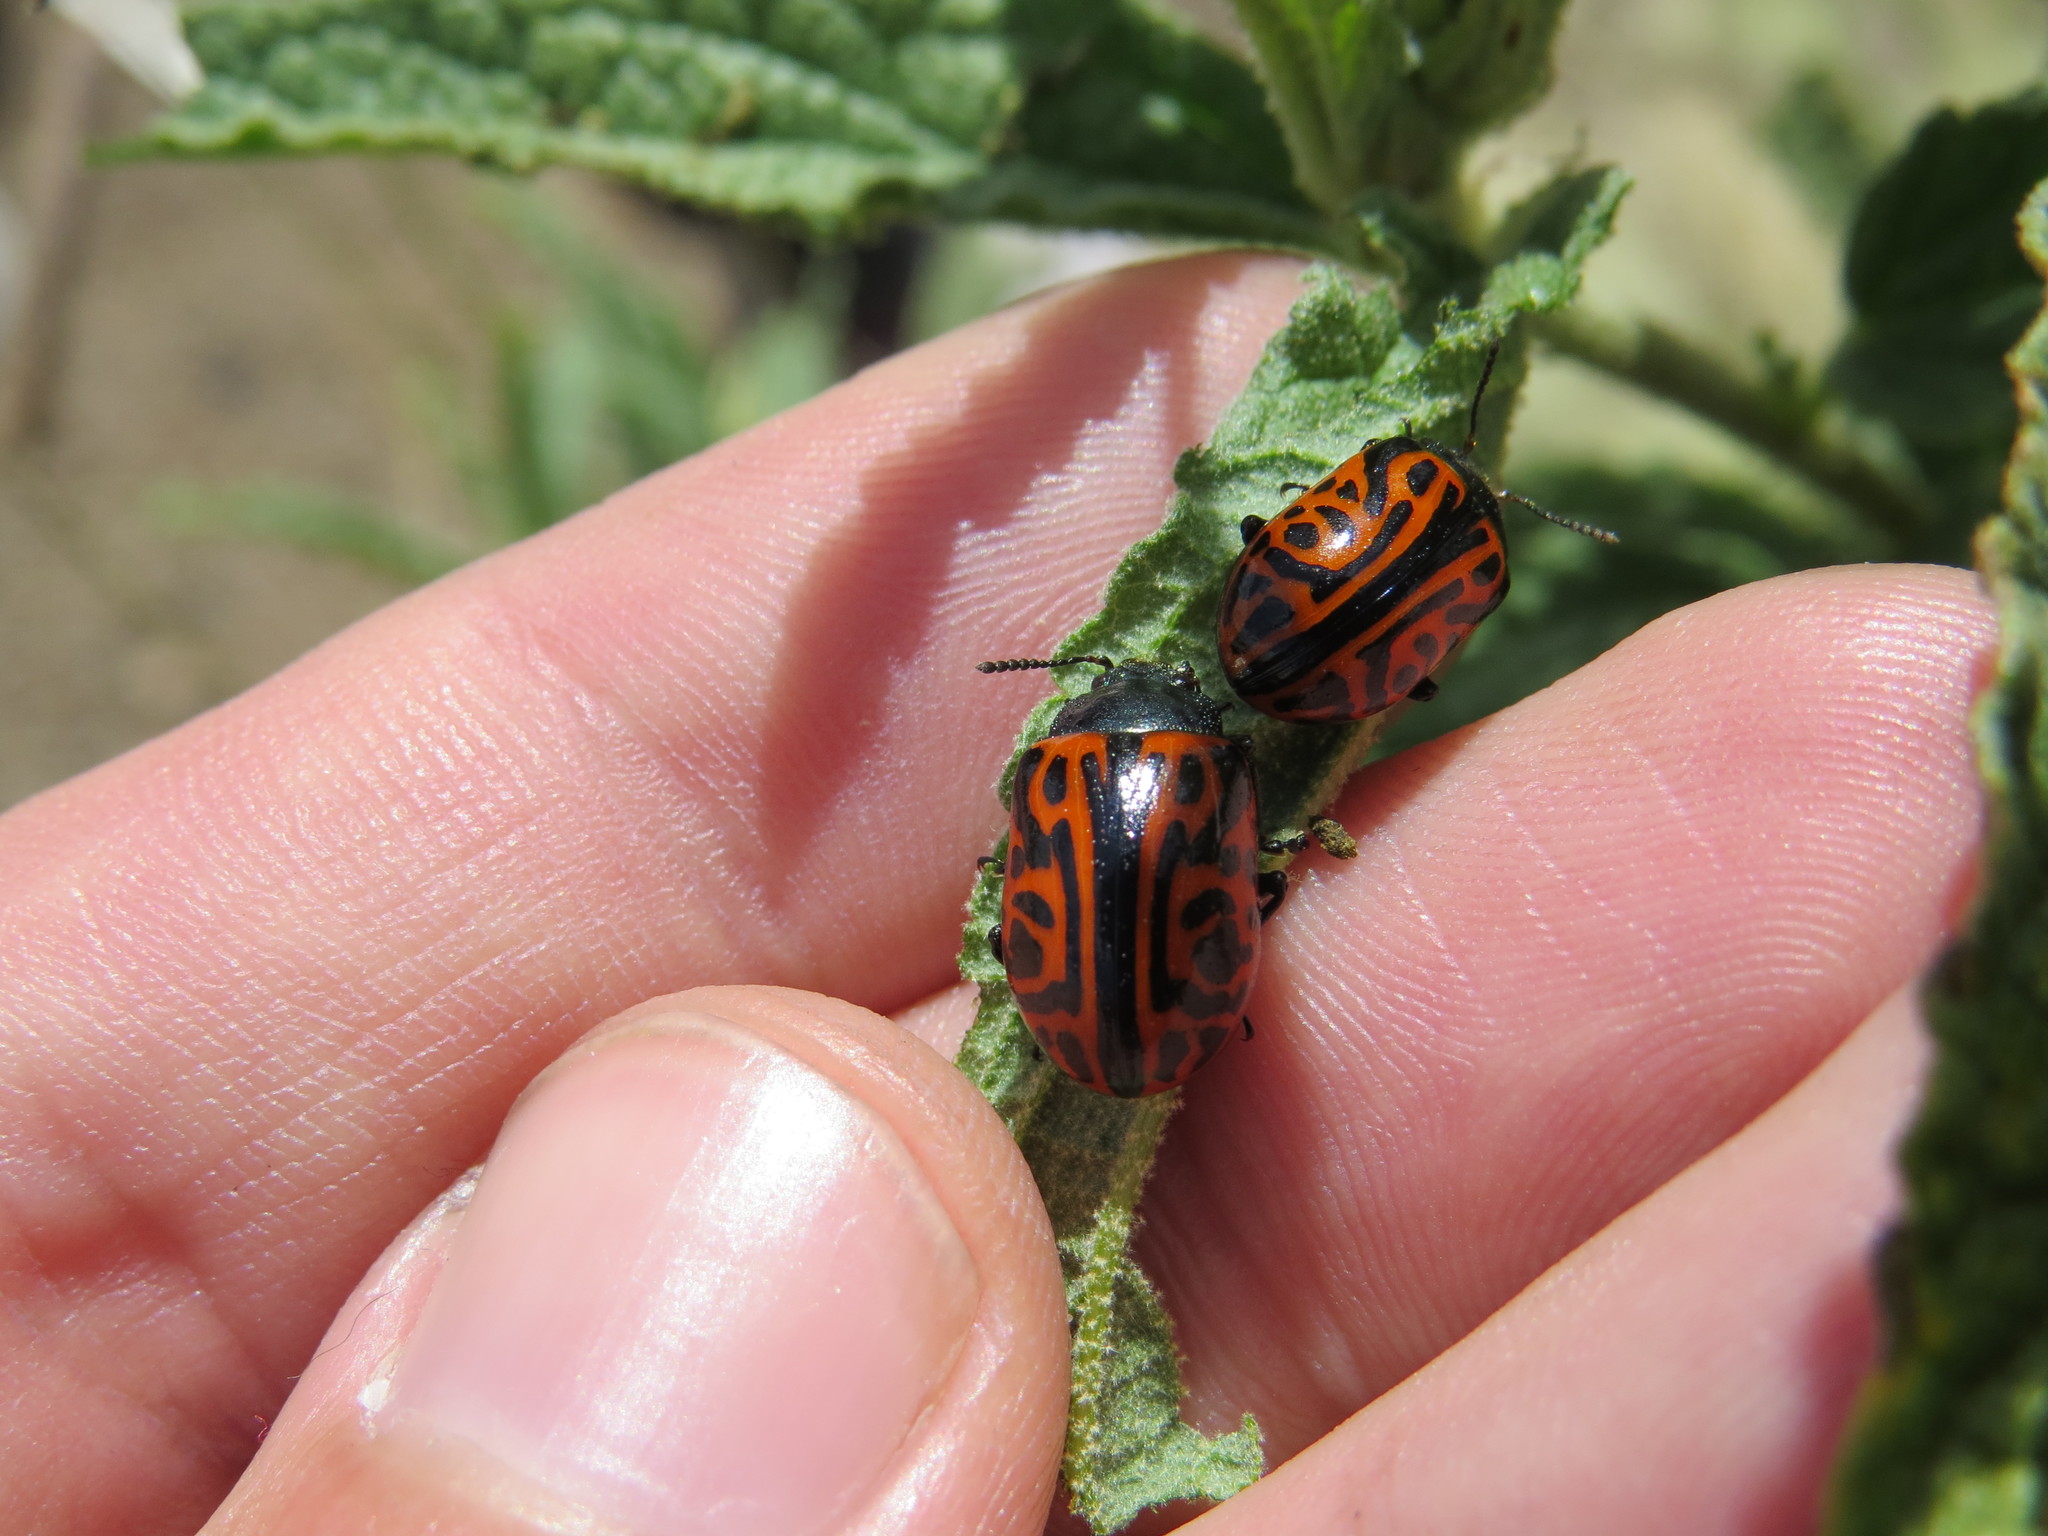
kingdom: Animalia
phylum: Arthropoda
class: Insecta
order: Coleoptera
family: Chrysomelidae
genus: Calligrapha
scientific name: Calligrapha mexicana
